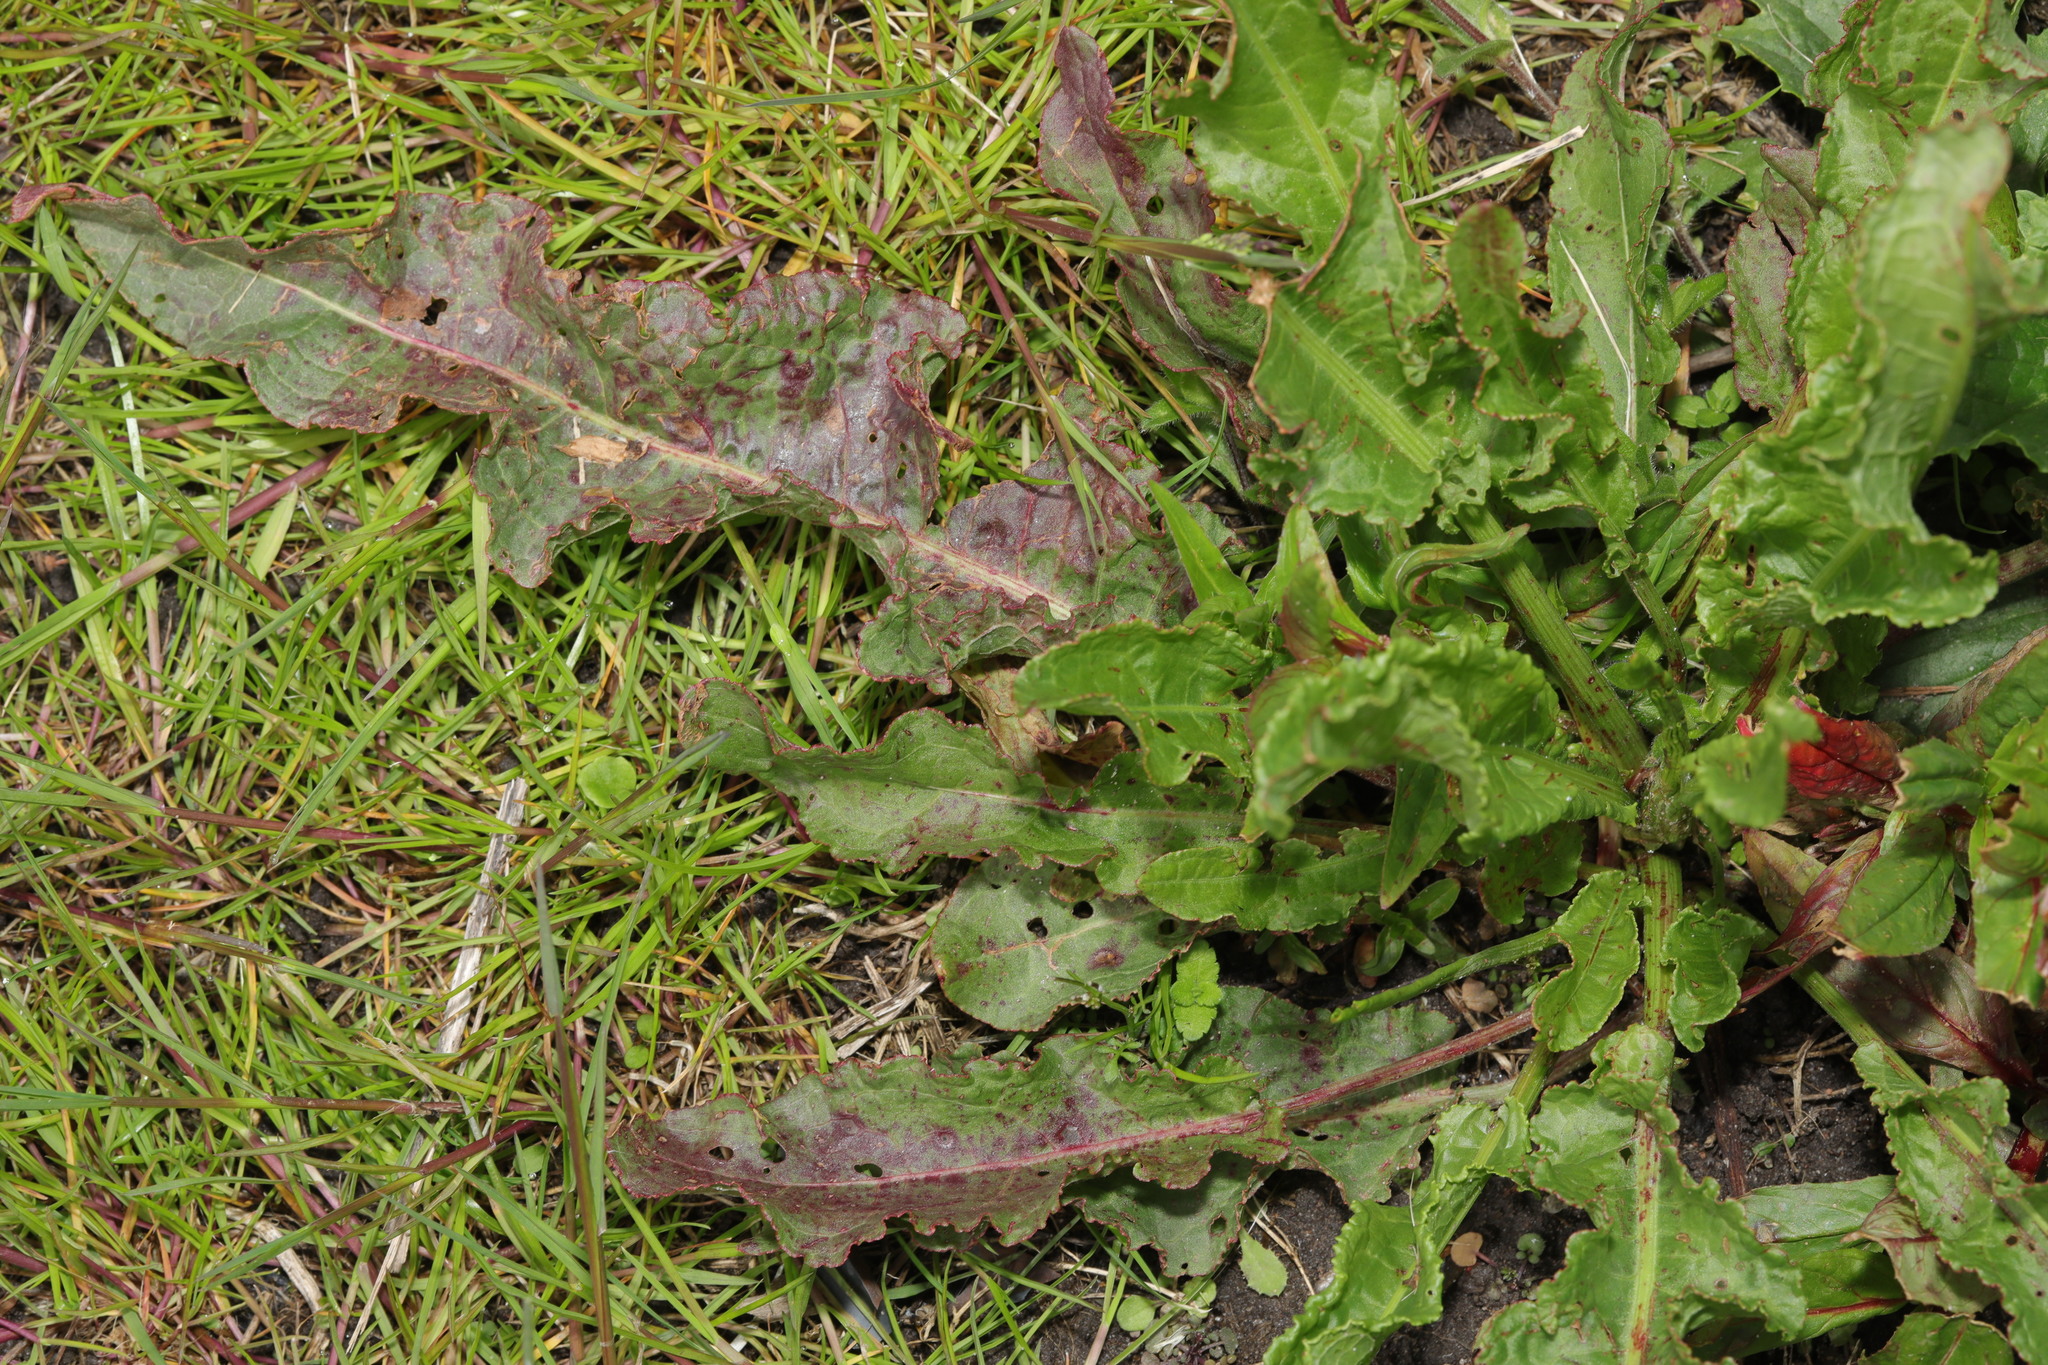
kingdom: Plantae
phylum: Tracheophyta
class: Magnoliopsida
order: Caryophyllales
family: Polygonaceae
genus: Rumex
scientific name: Rumex crispus
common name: Curled dock
